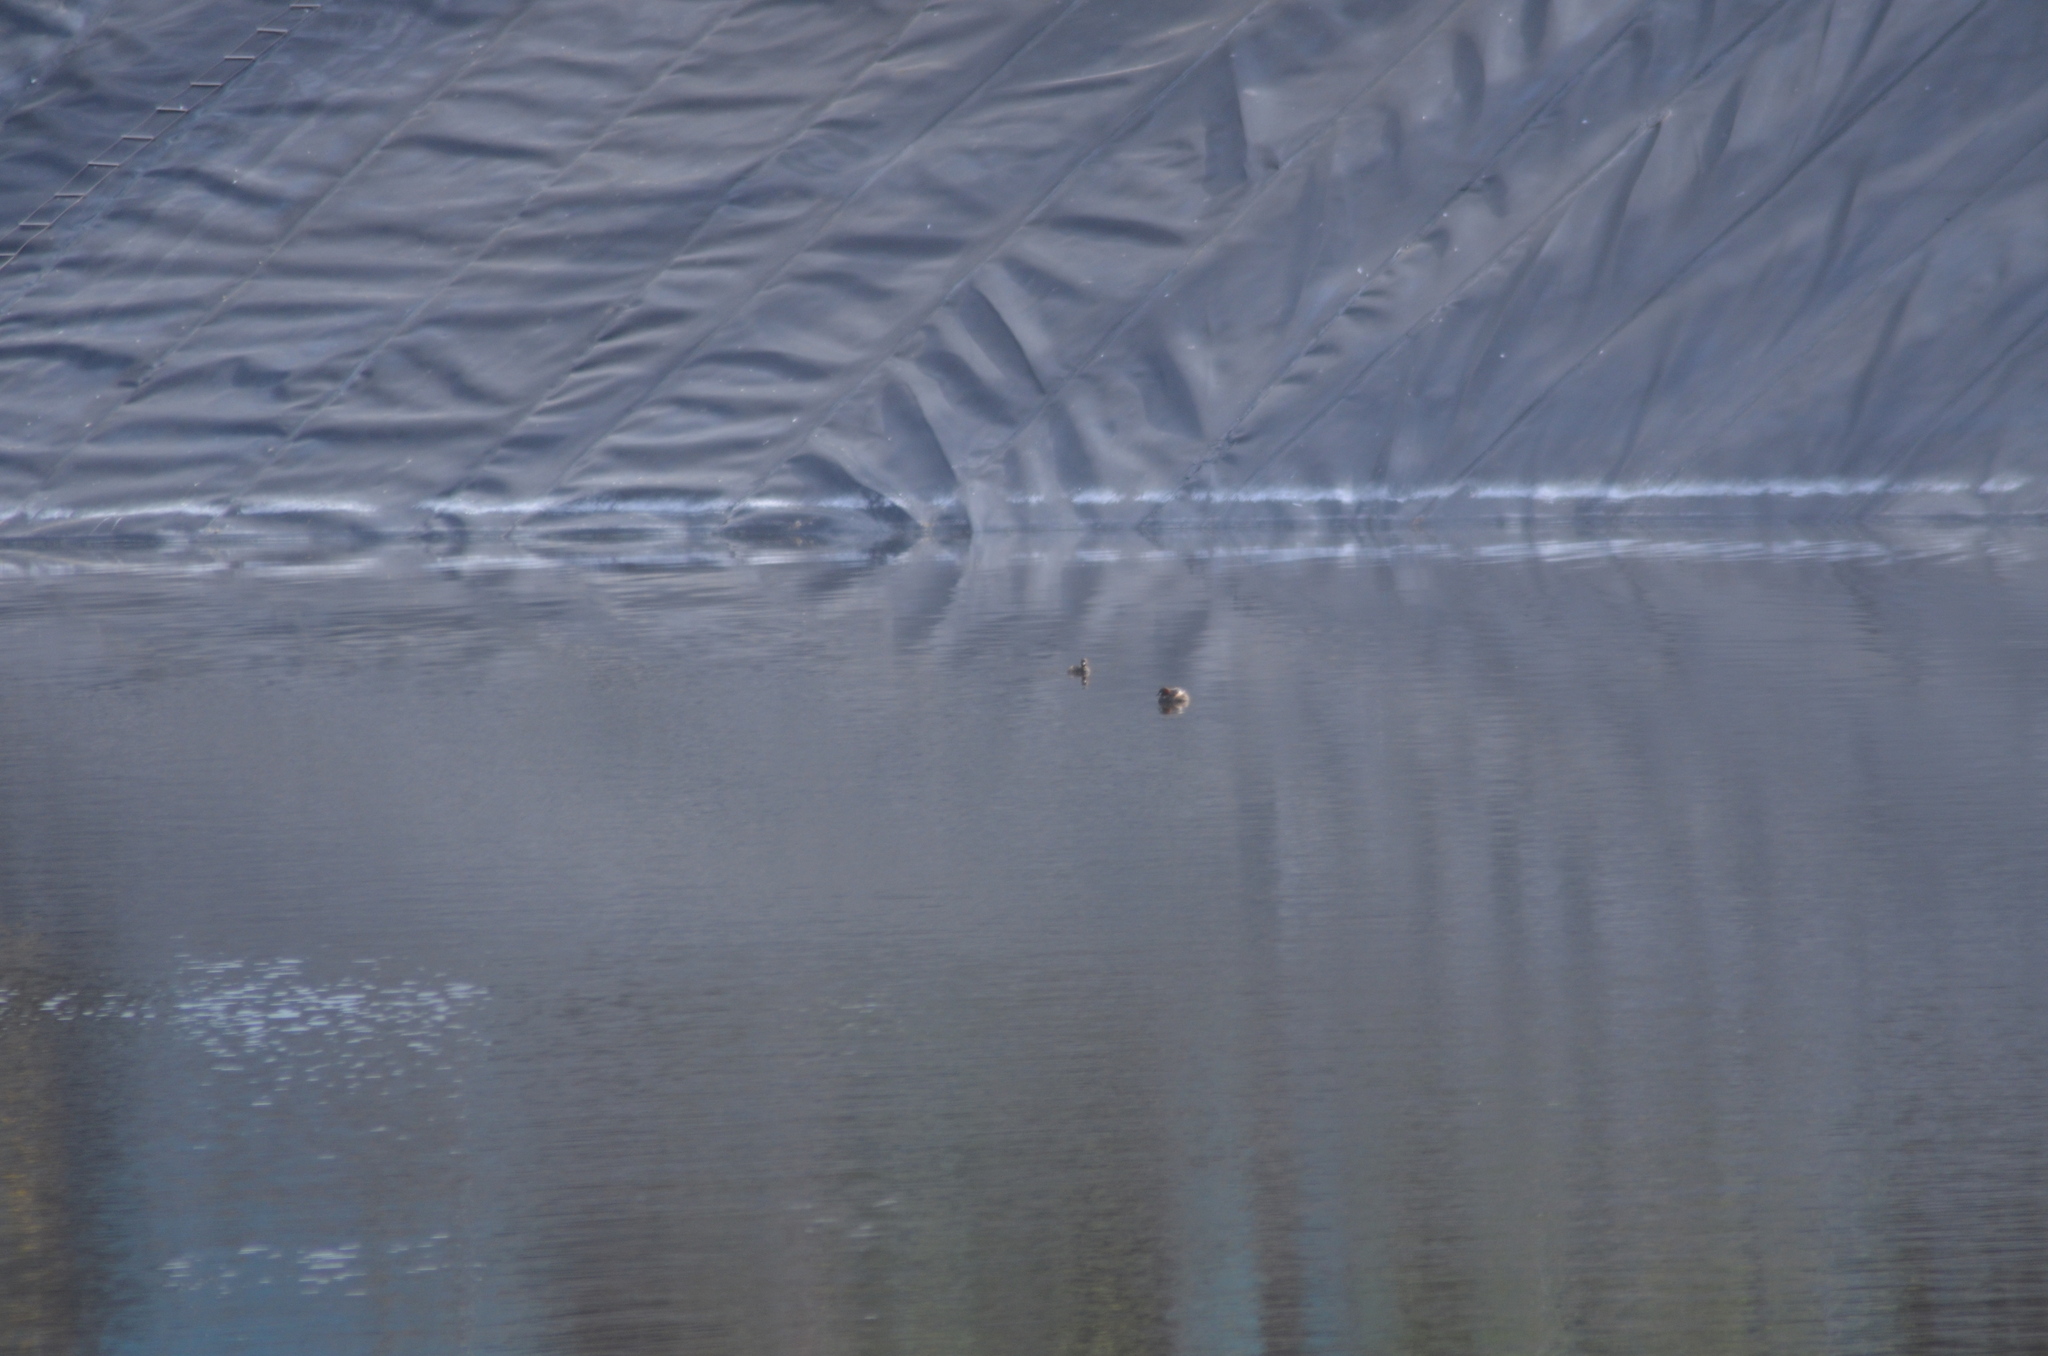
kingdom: Animalia
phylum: Chordata
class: Aves
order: Podicipediformes
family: Podicipedidae
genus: Tachybaptus
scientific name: Tachybaptus ruficollis
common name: Little grebe
